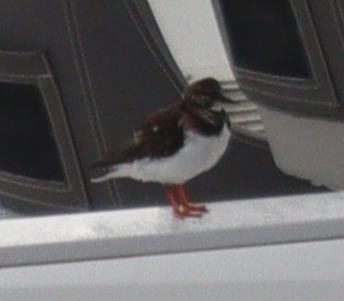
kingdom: Animalia
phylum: Chordata
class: Aves
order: Charadriiformes
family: Scolopacidae
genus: Arenaria
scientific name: Arenaria interpres
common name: Ruddy turnstone
